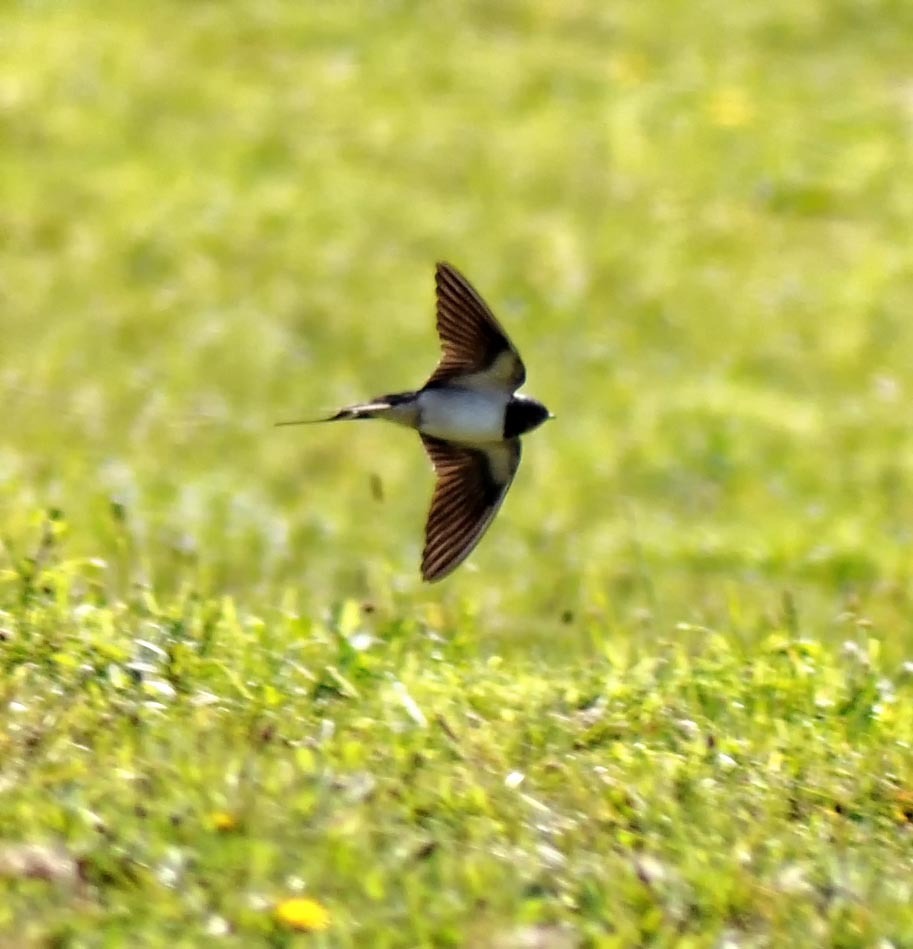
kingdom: Animalia
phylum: Chordata
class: Aves
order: Passeriformes
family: Hirundinidae
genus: Hirundo
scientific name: Hirundo rustica
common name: Barn swallow
